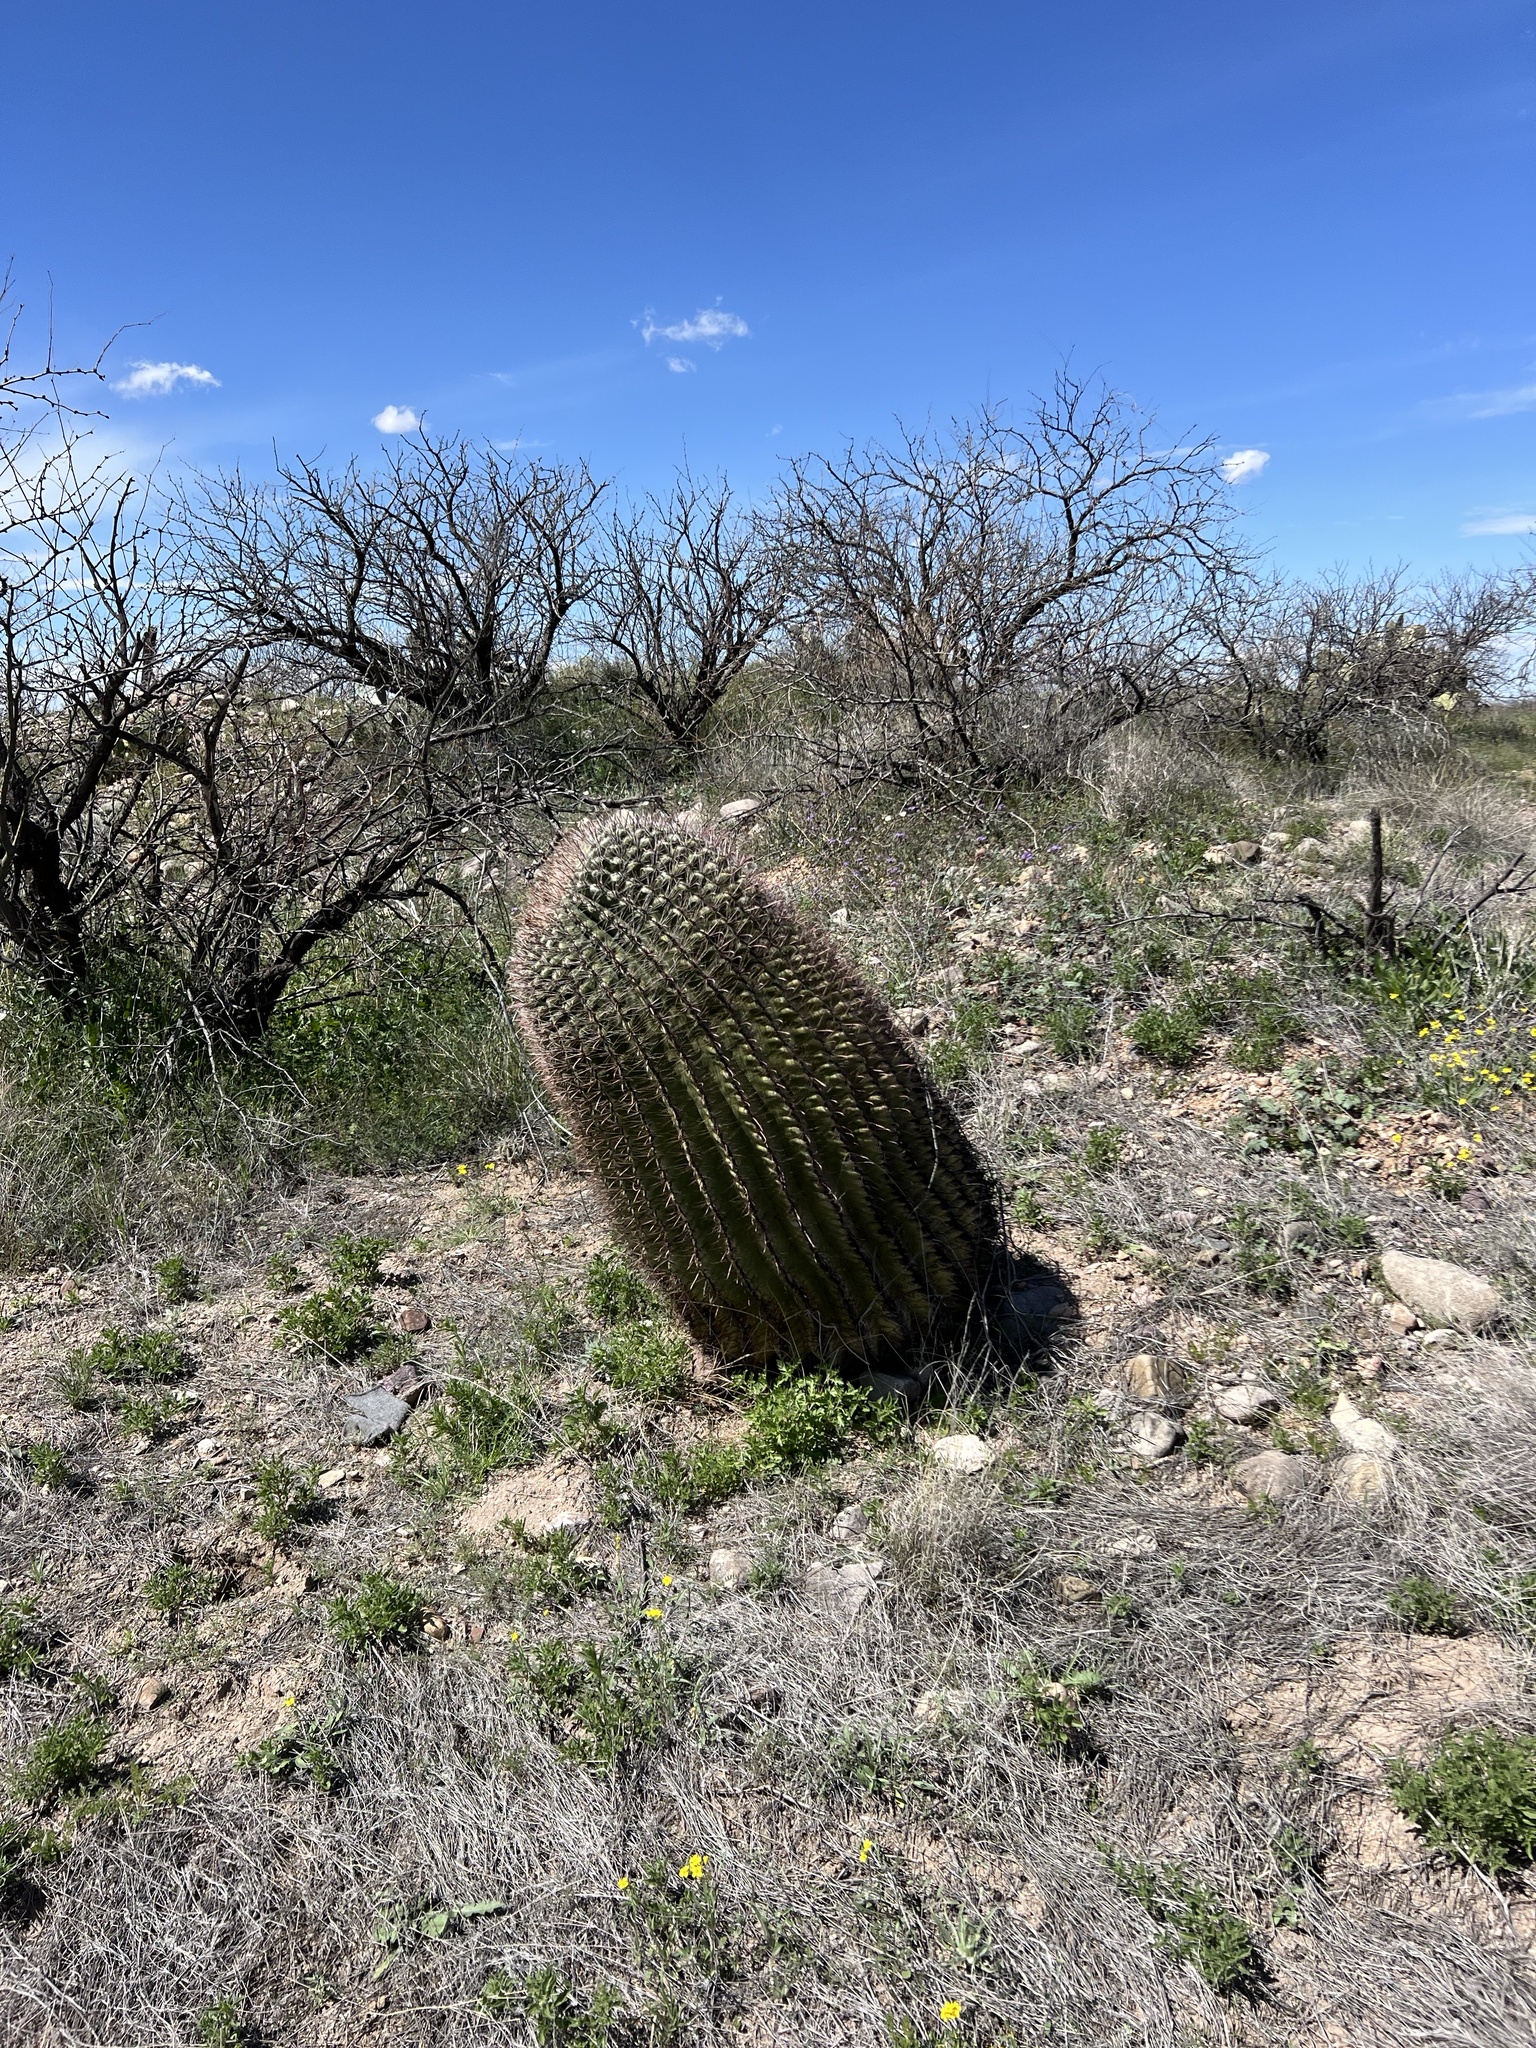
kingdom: Plantae
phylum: Tracheophyta
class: Magnoliopsida
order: Caryophyllales
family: Cactaceae
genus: Ferocactus
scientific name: Ferocactus wislizeni
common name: Candy barrel cactus
